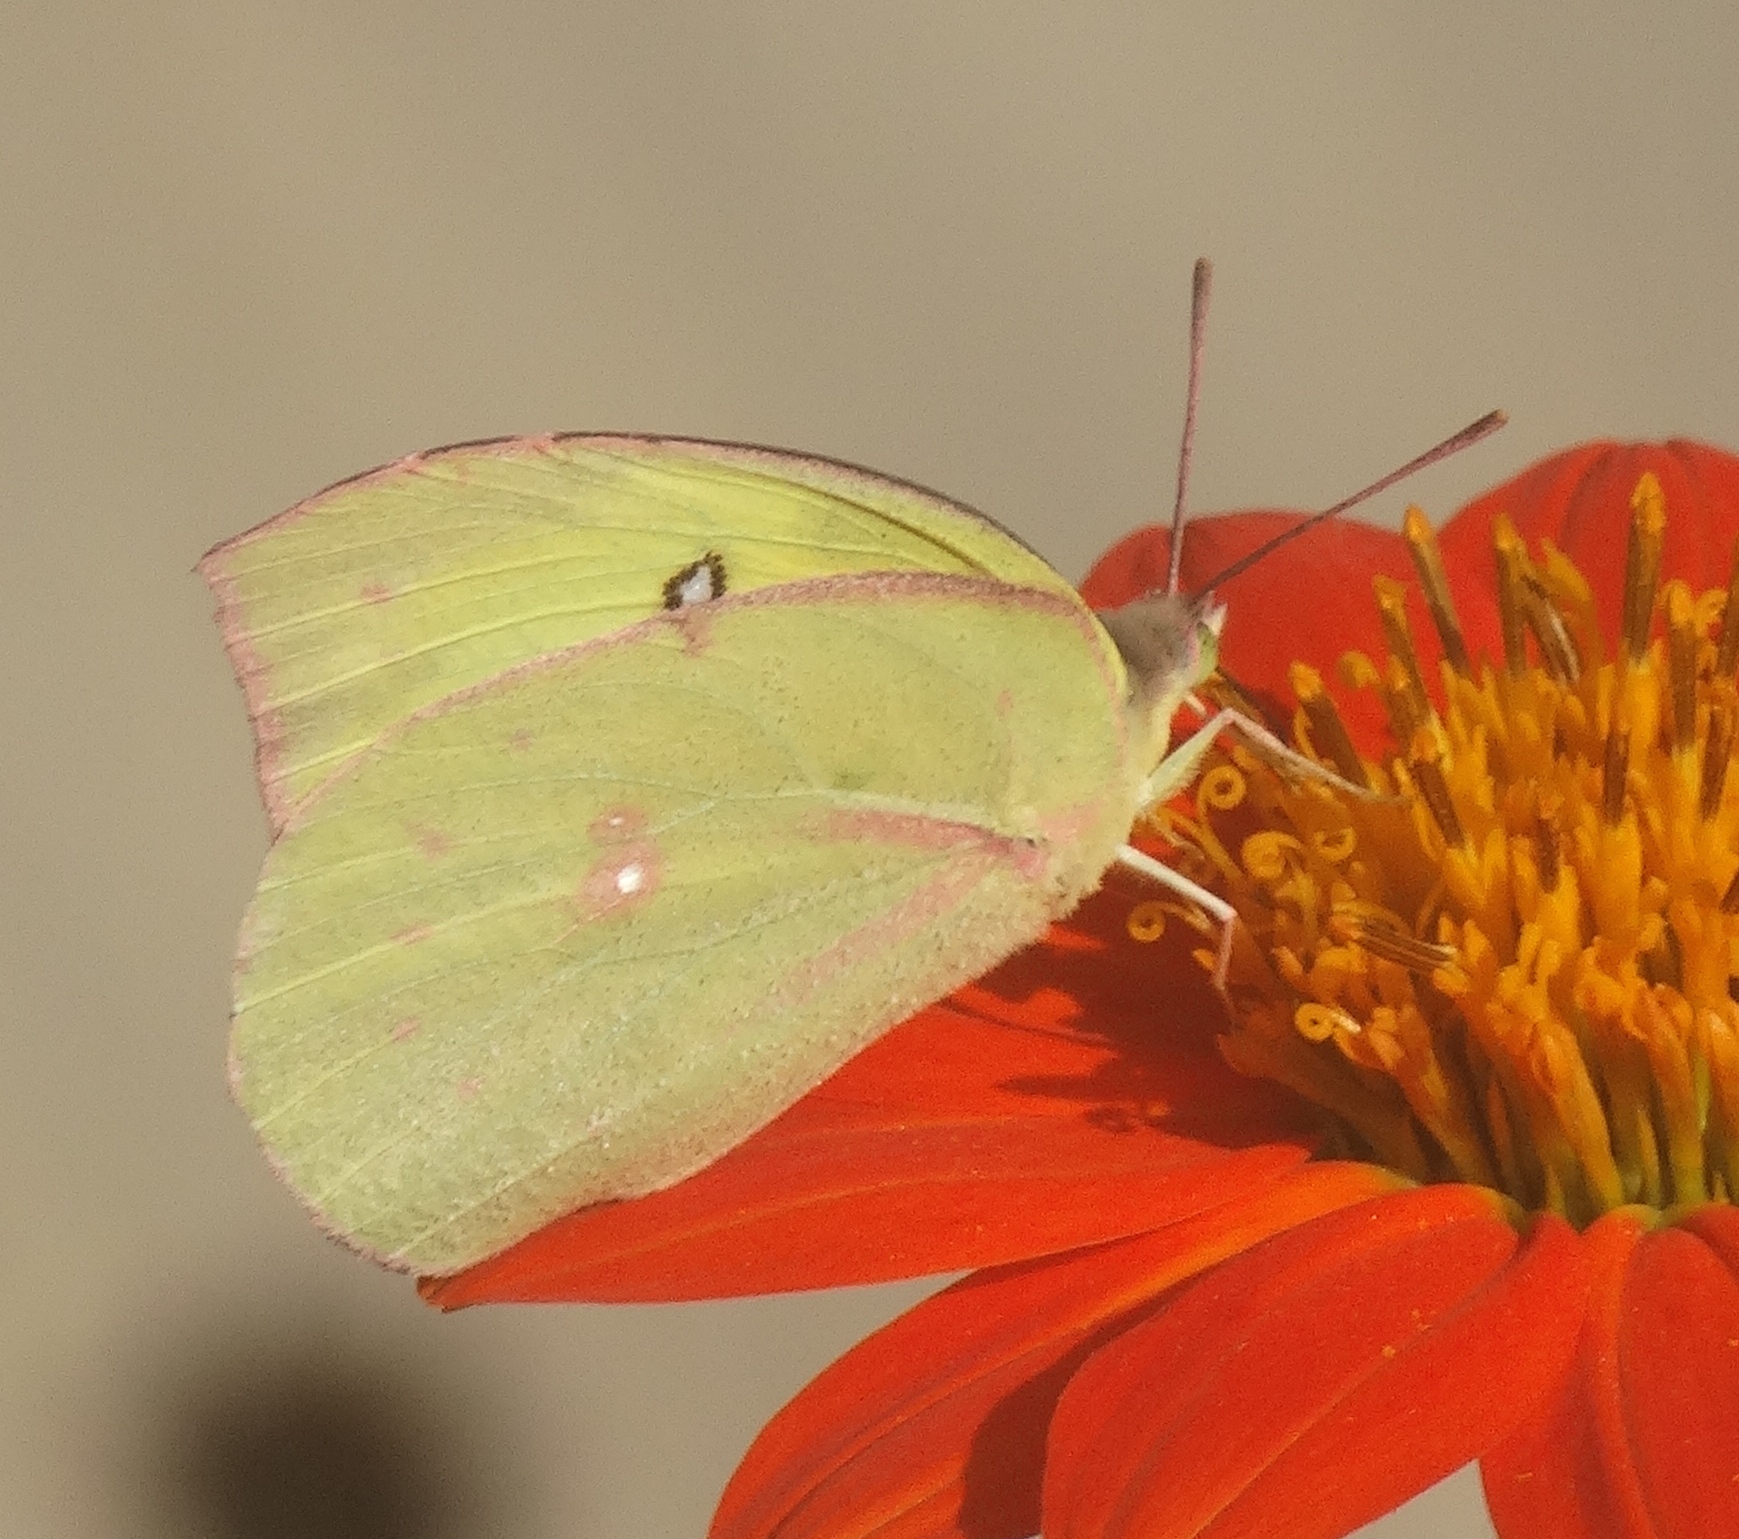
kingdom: Animalia
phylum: Arthropoda
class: Insecta
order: Lepidoptera
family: Pieridae
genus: Zerene
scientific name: Zerene cesonia
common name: Southern dogface
